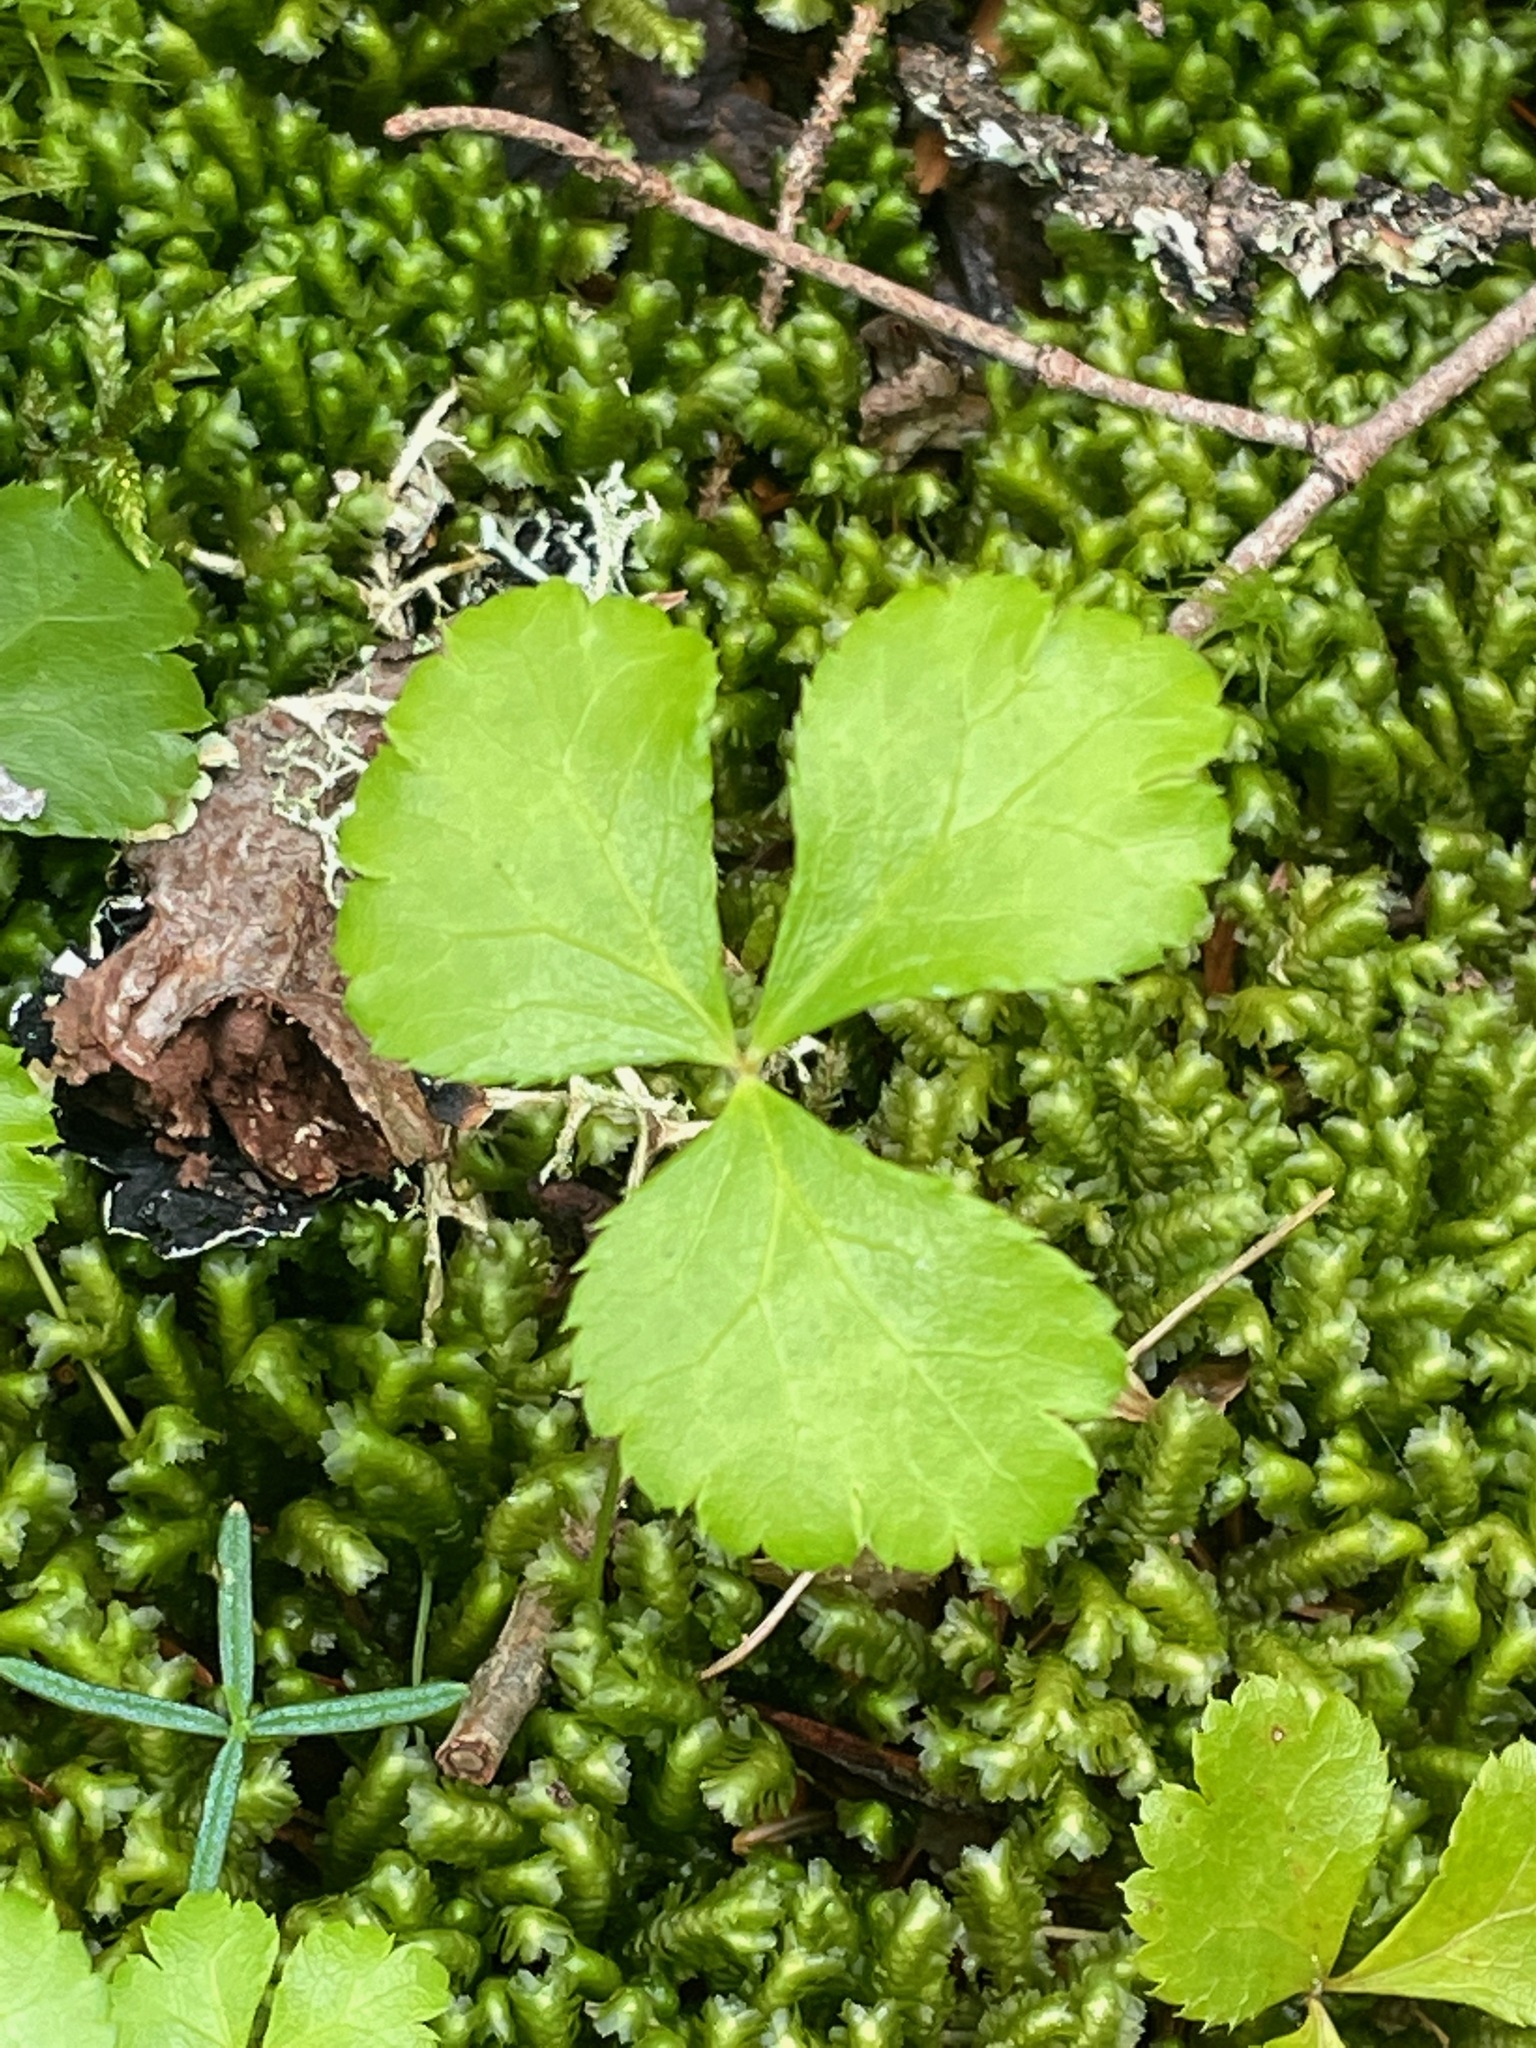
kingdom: Plantae
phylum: Tracheophyta
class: Magnoliopsida
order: Ranunculales
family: Ranunculaceae
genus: Coptis
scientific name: Coptis trifolia
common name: Canker-root
